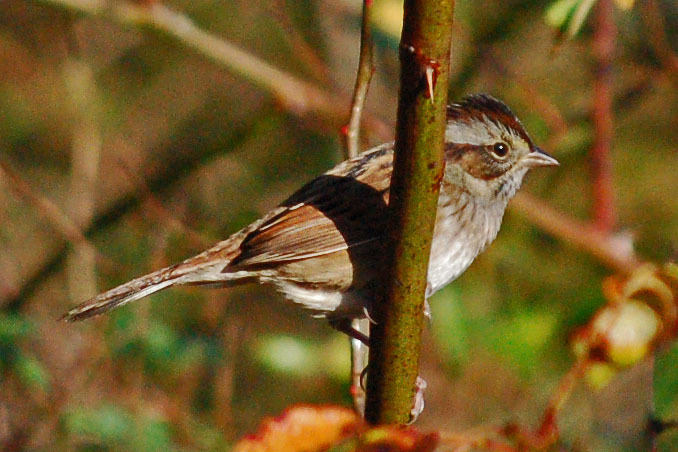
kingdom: Animalia
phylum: Chordata
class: Aves
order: Passeriformes
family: Passerellidae
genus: Melospiza
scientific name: Melospiza georgiana
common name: Swamp sparrow
